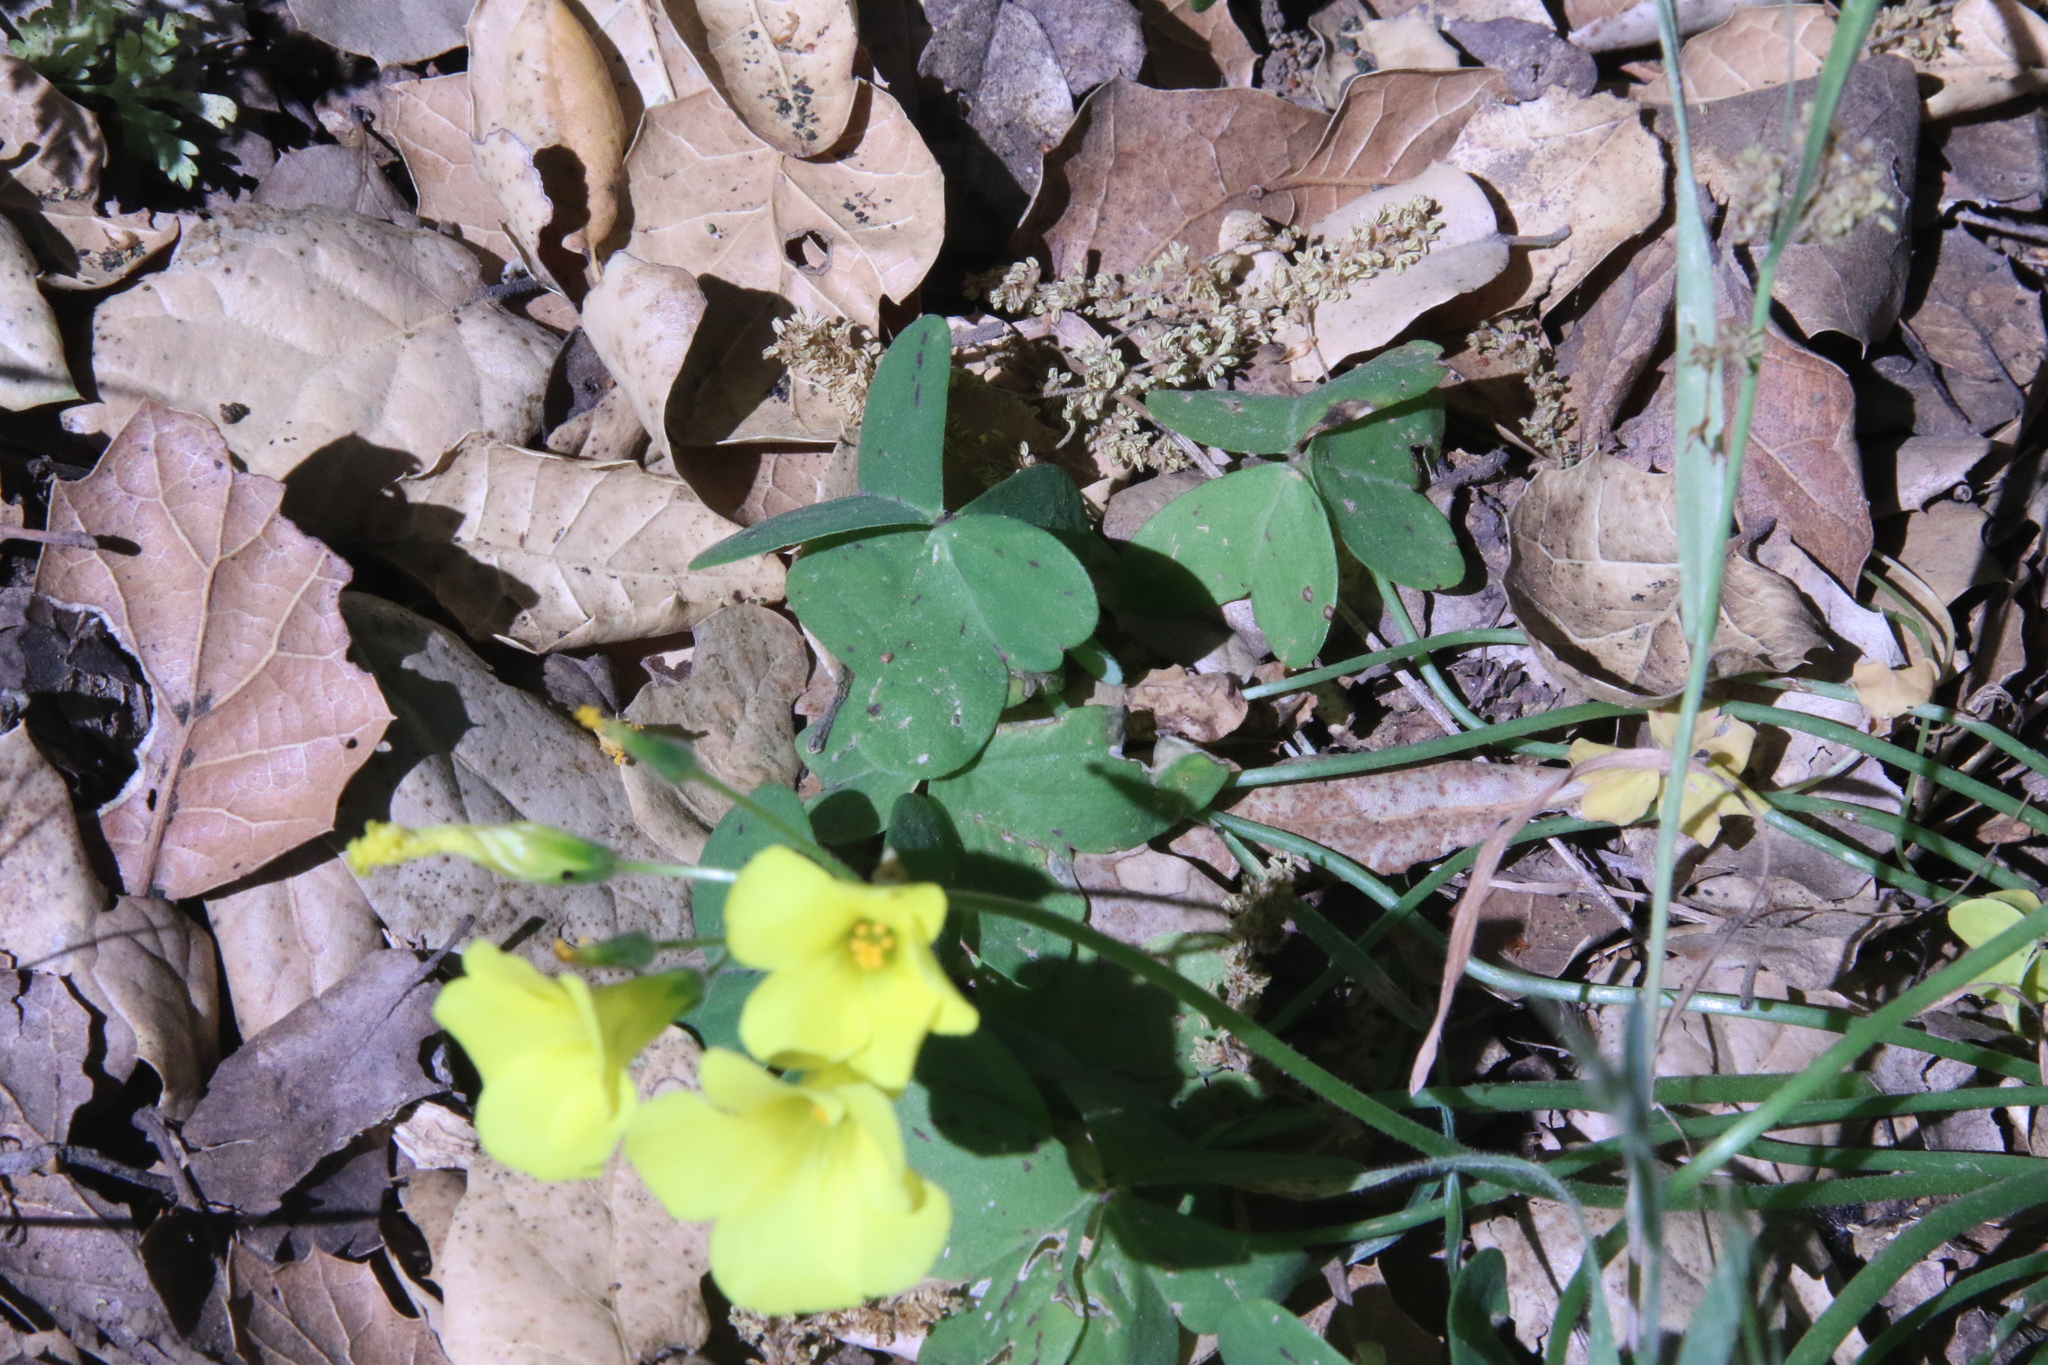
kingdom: Plantae
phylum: Tracheophyta
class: Magnoliopsida
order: Oxalidales
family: Oxalidaceae
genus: Oxalis
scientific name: Oxalis pes-caprae
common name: Bermuda-buttercup
